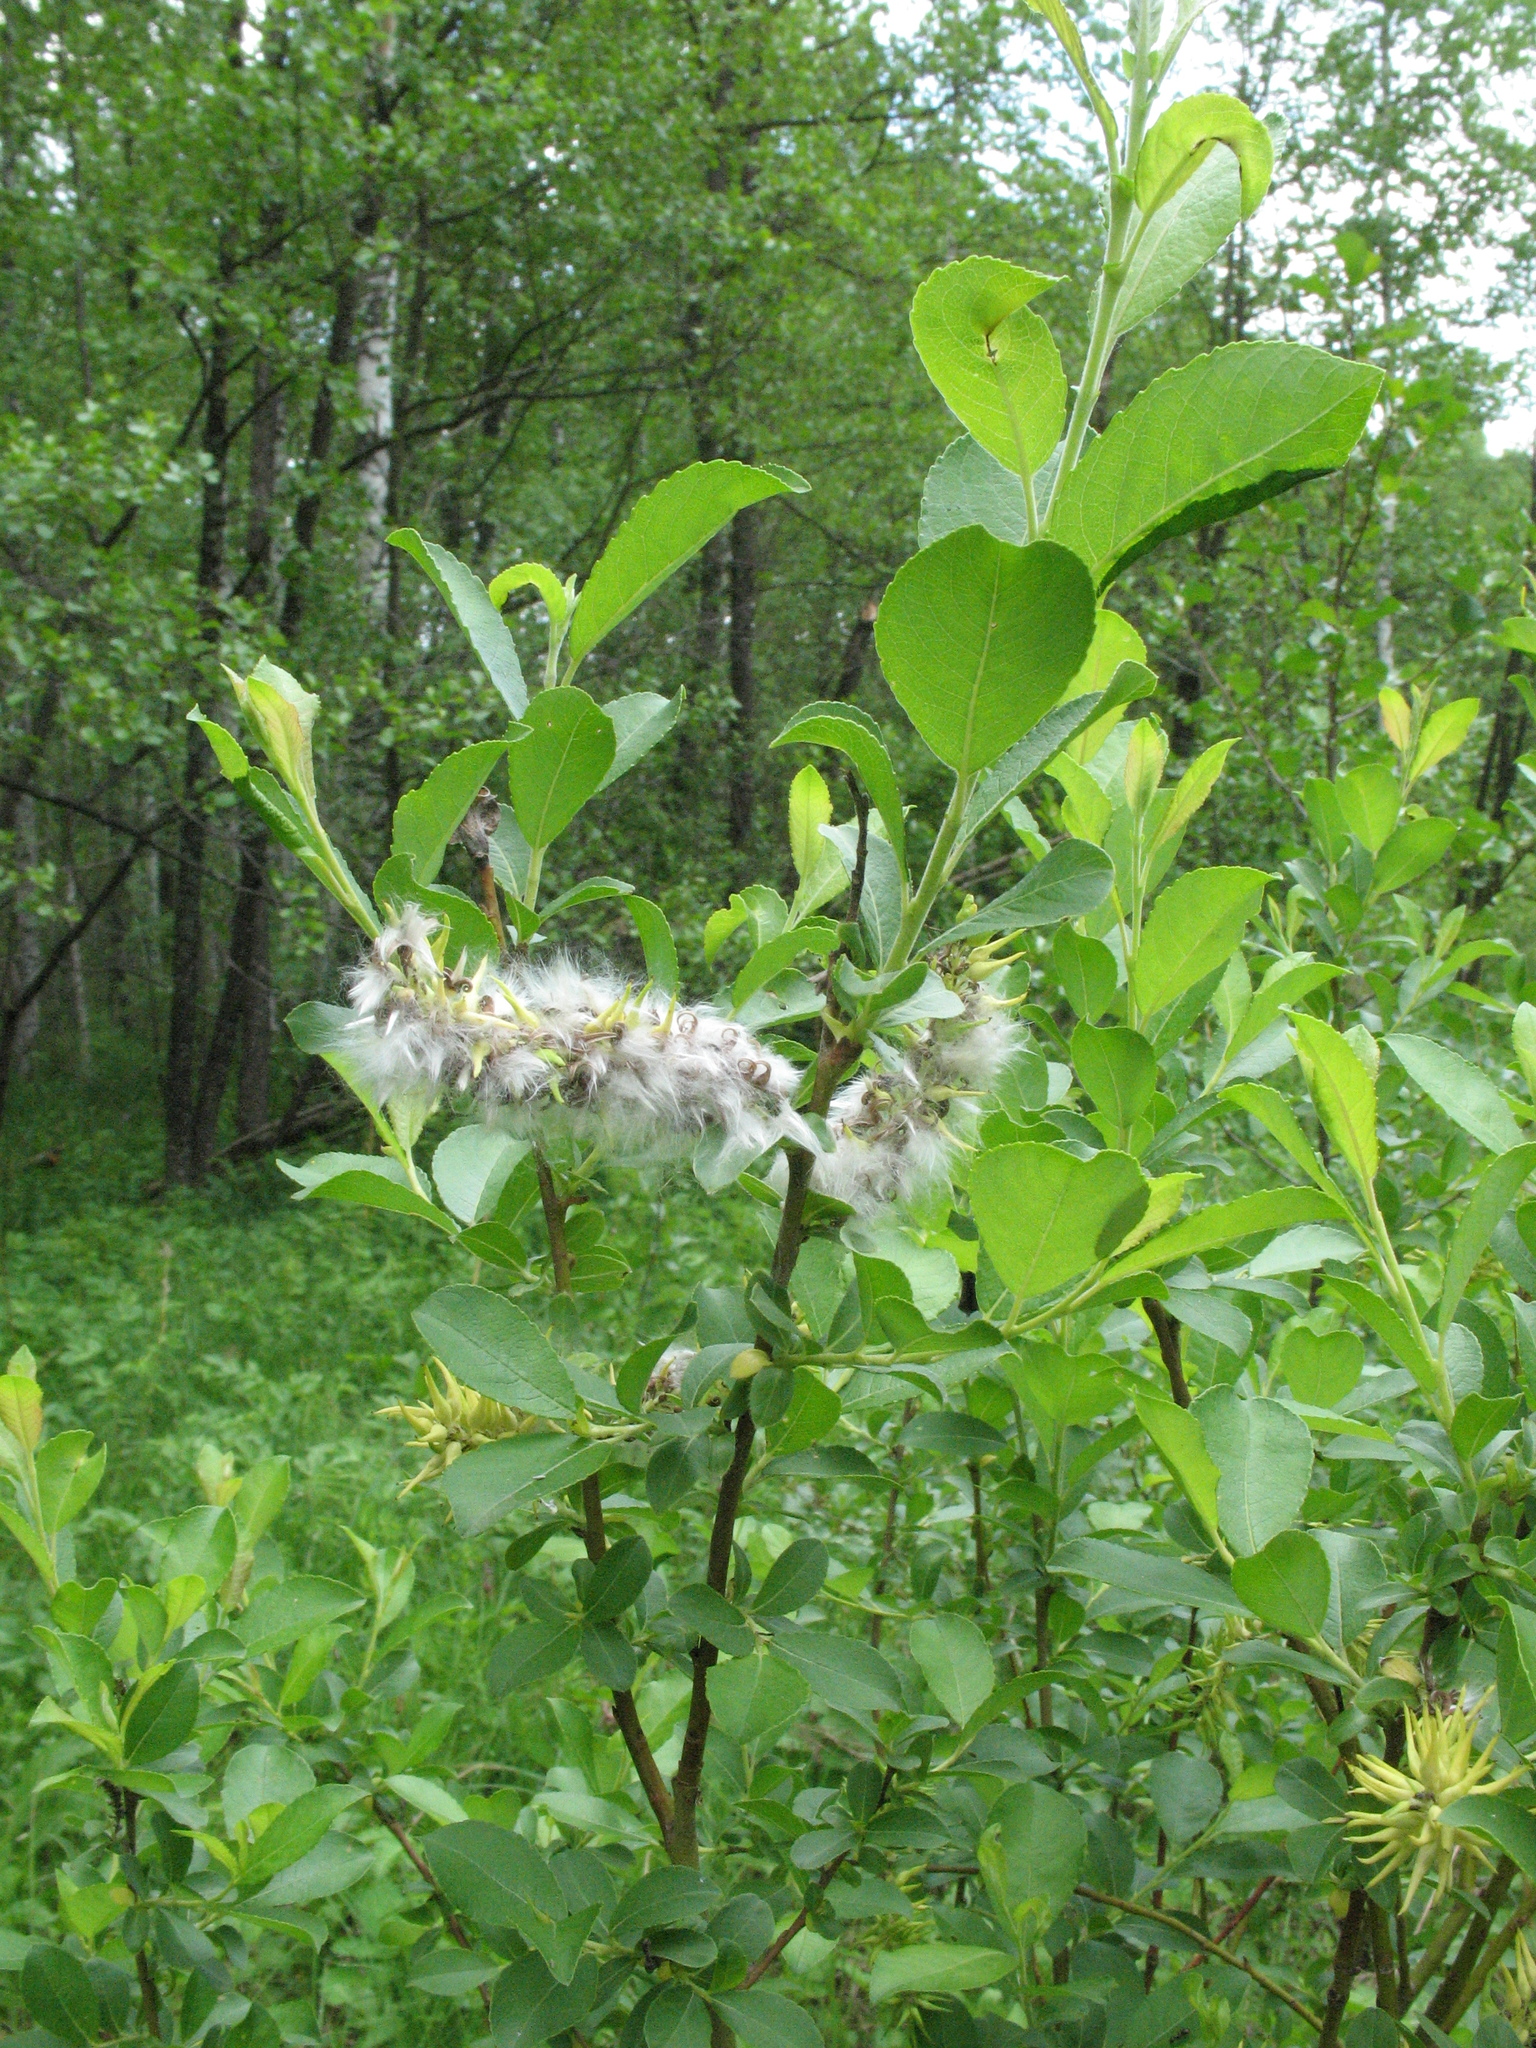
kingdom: Plantae
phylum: Tracheophyta
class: Magnoliopsida
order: Malpighiales
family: Salicaceae
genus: Salix
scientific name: Salix myrsinifolia
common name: Dark-leaved willow
